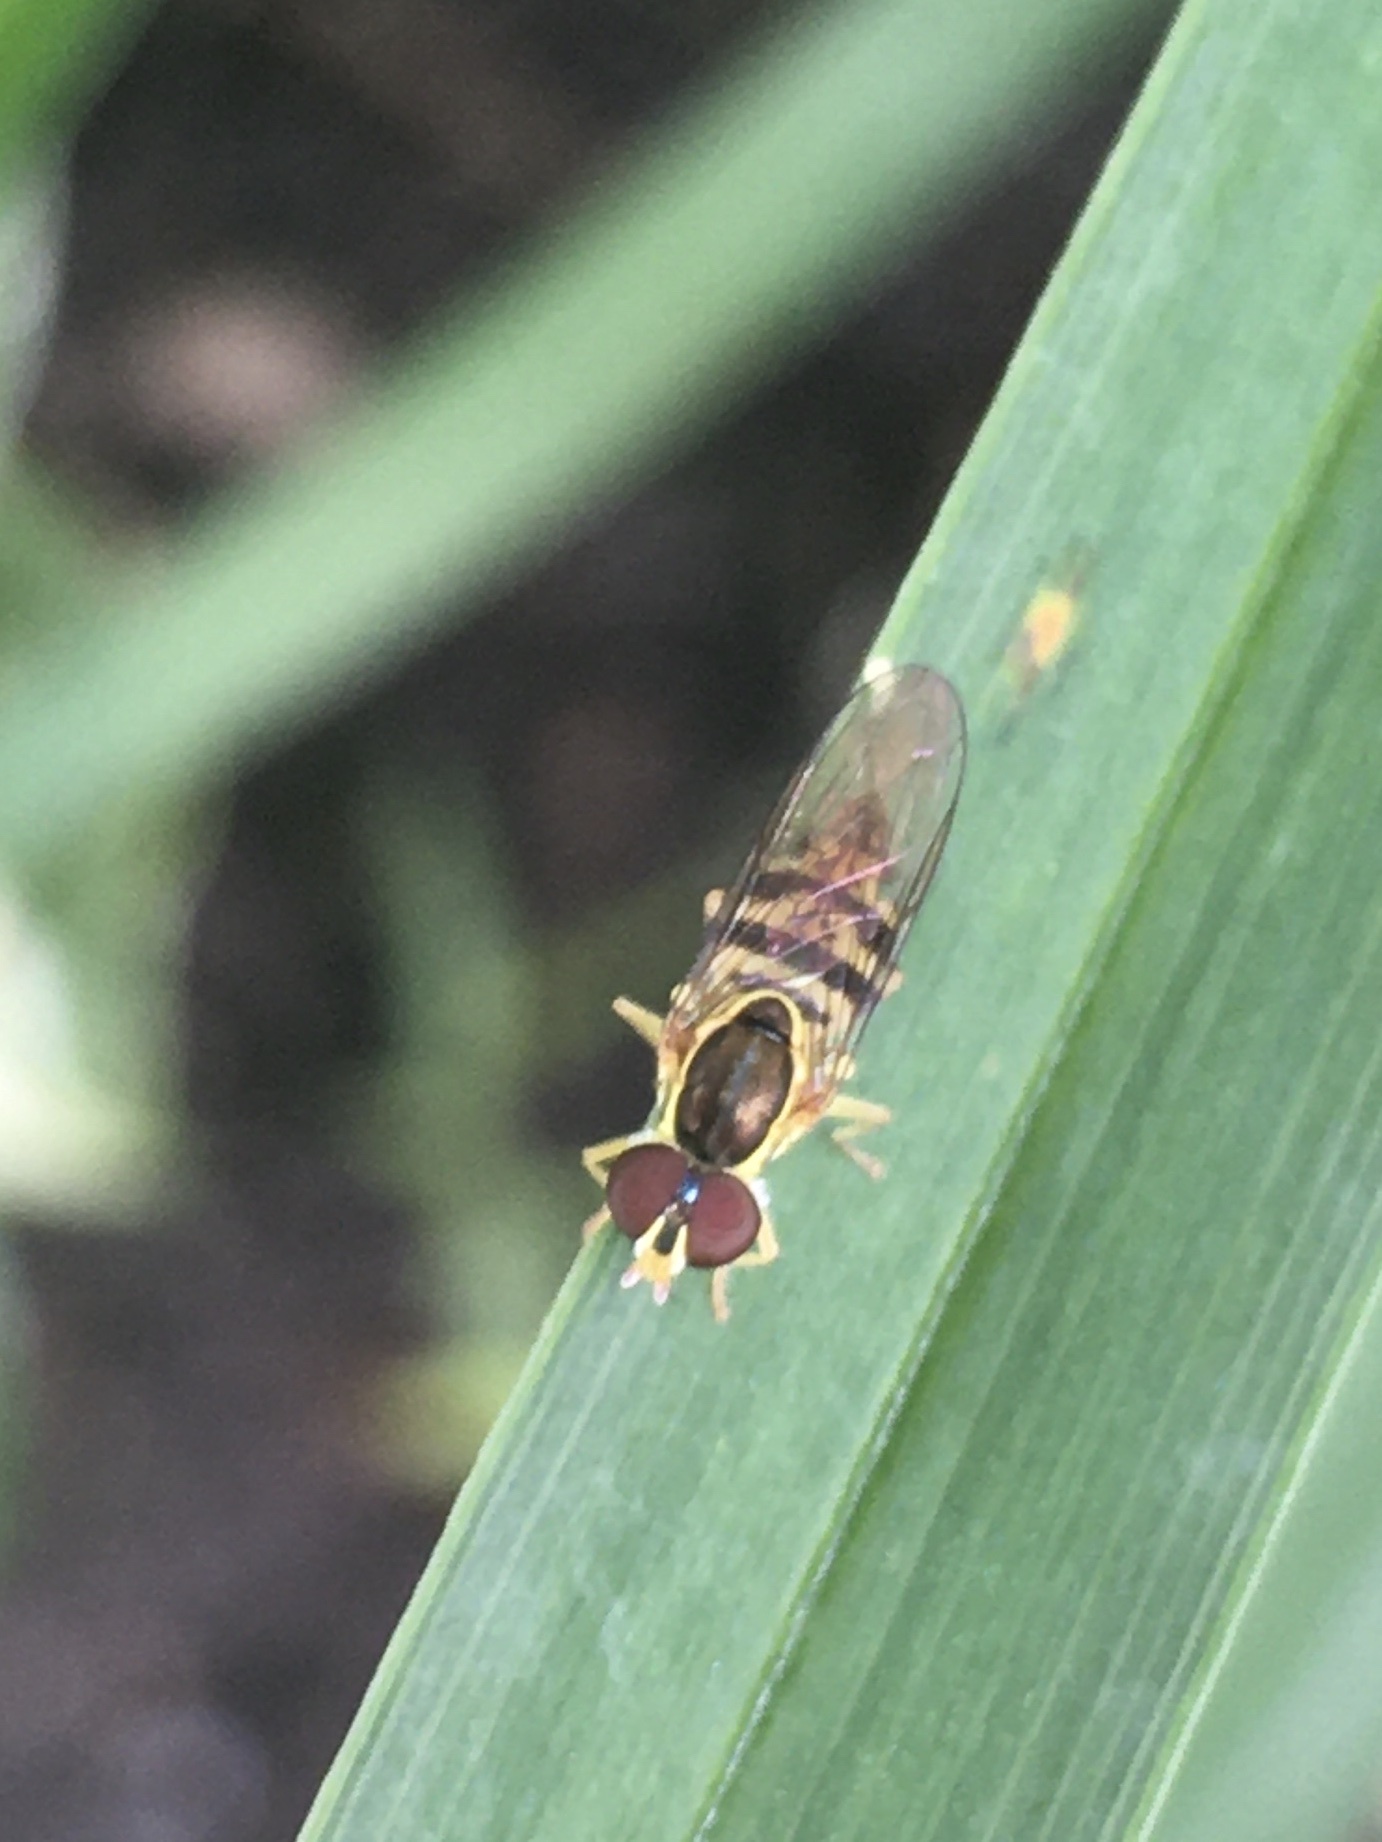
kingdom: Animalia
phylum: Arthropoda
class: Insecta
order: Diptera
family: Syrphidae
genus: Toxomerus
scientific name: Toxomerus geminatus
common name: Eastern calligrapher
